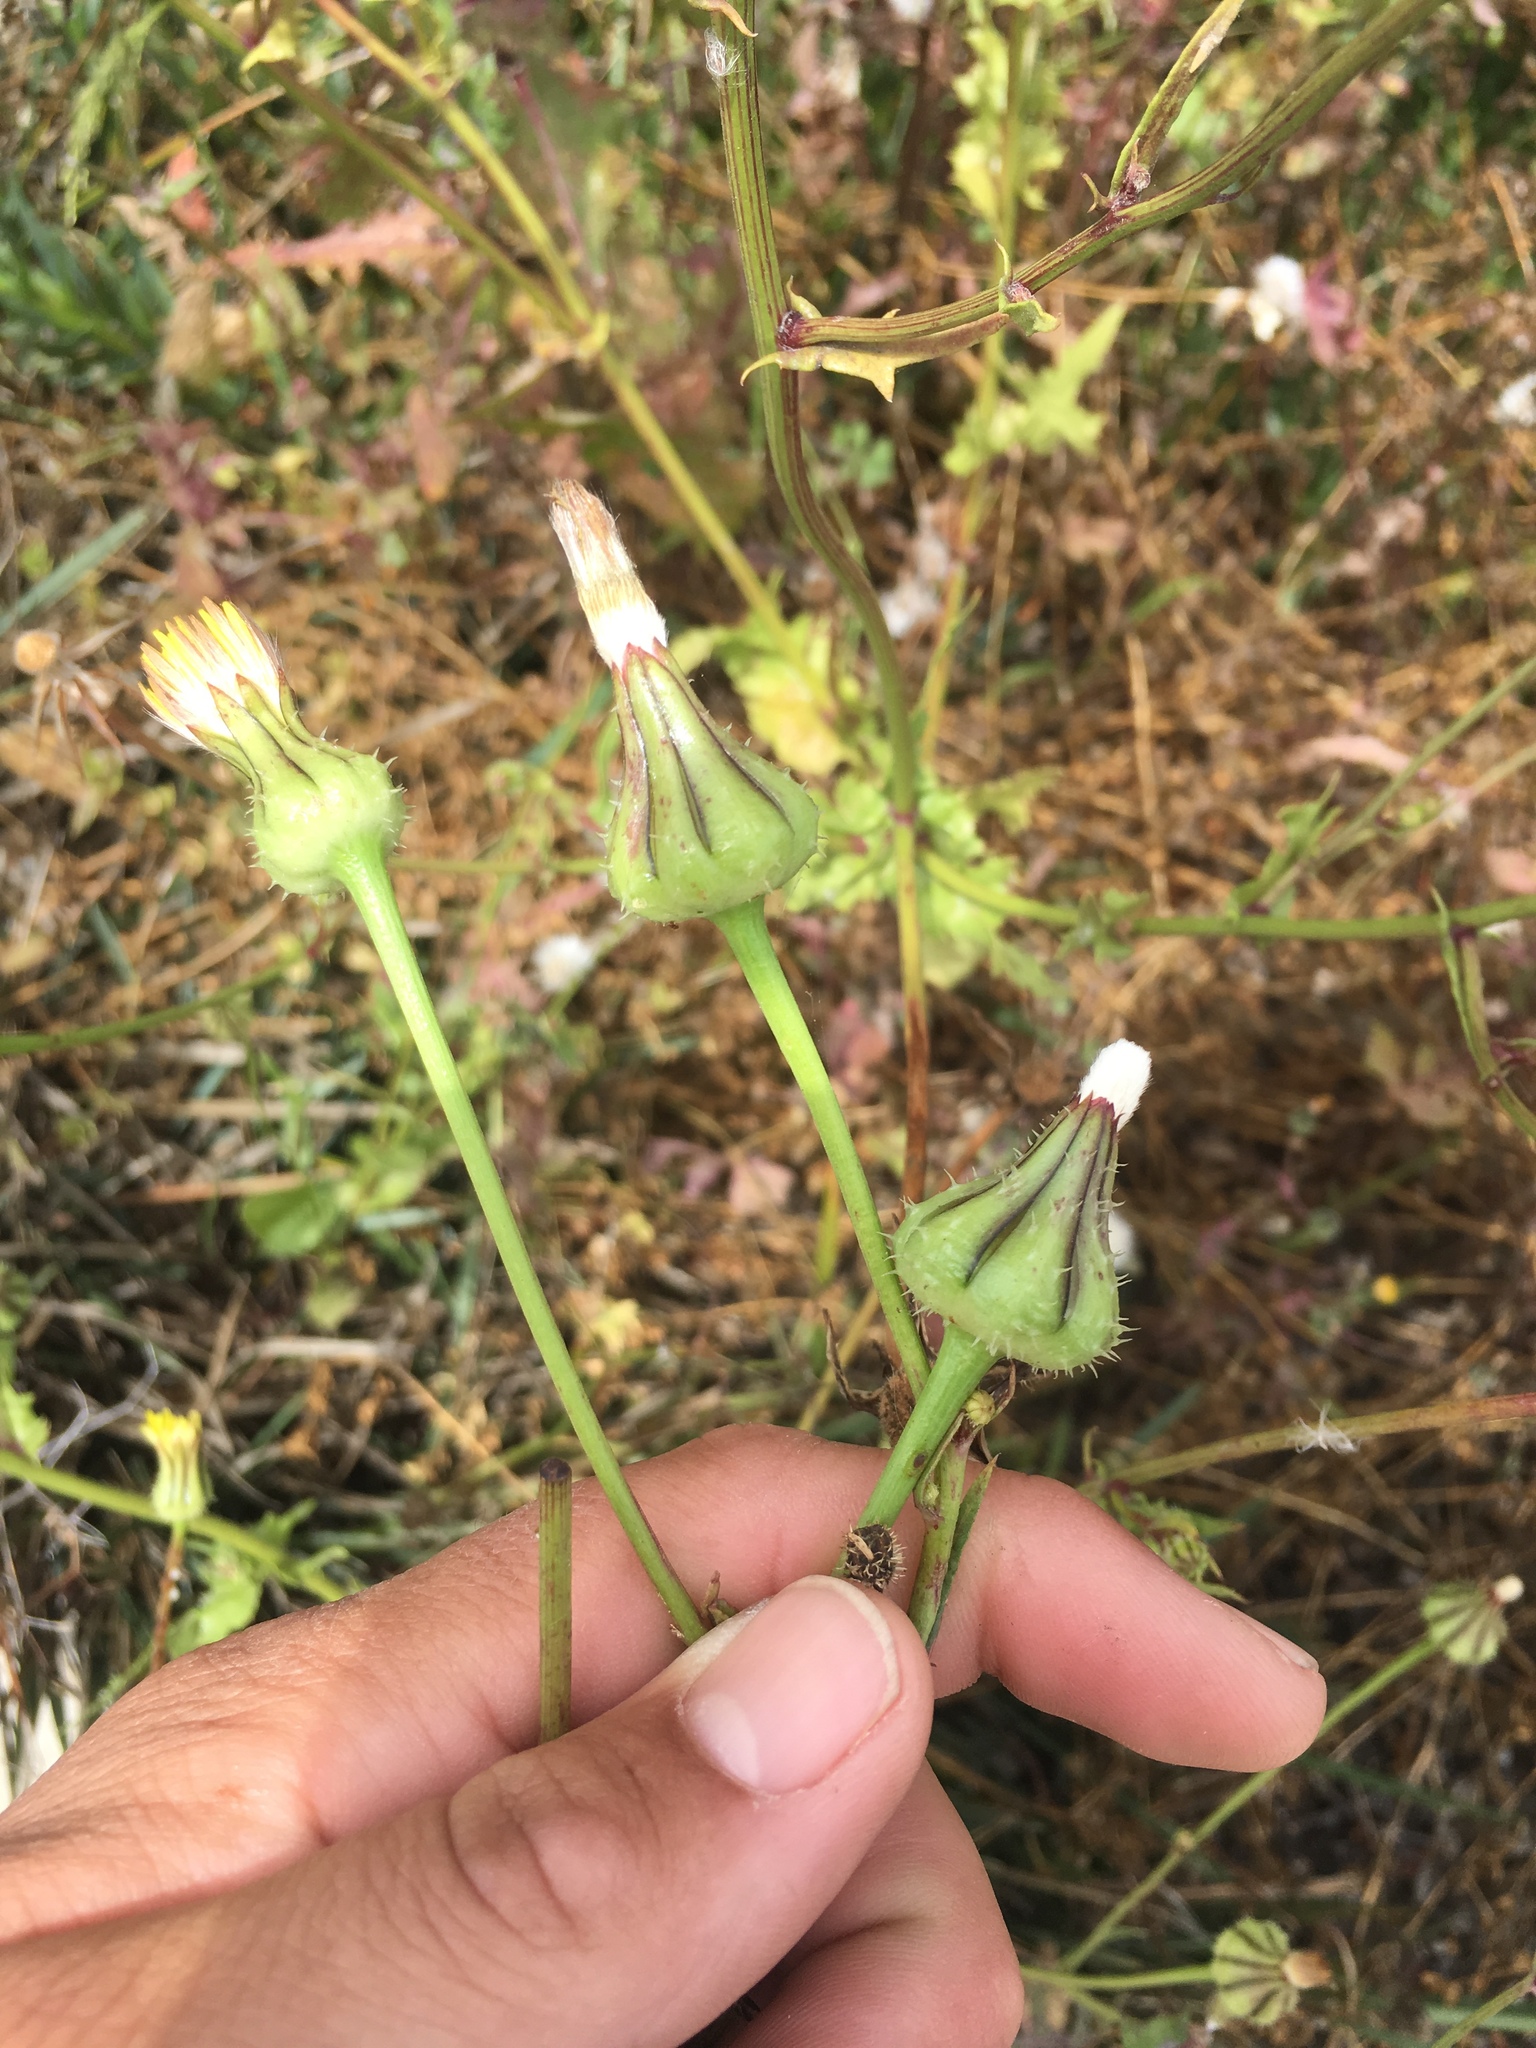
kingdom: Plantae
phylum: Tracheophyta
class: Magnoliopsida
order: Asterales
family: Asteraceae
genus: Urospermum
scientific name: Urospermum picroides
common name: False hawkbit
